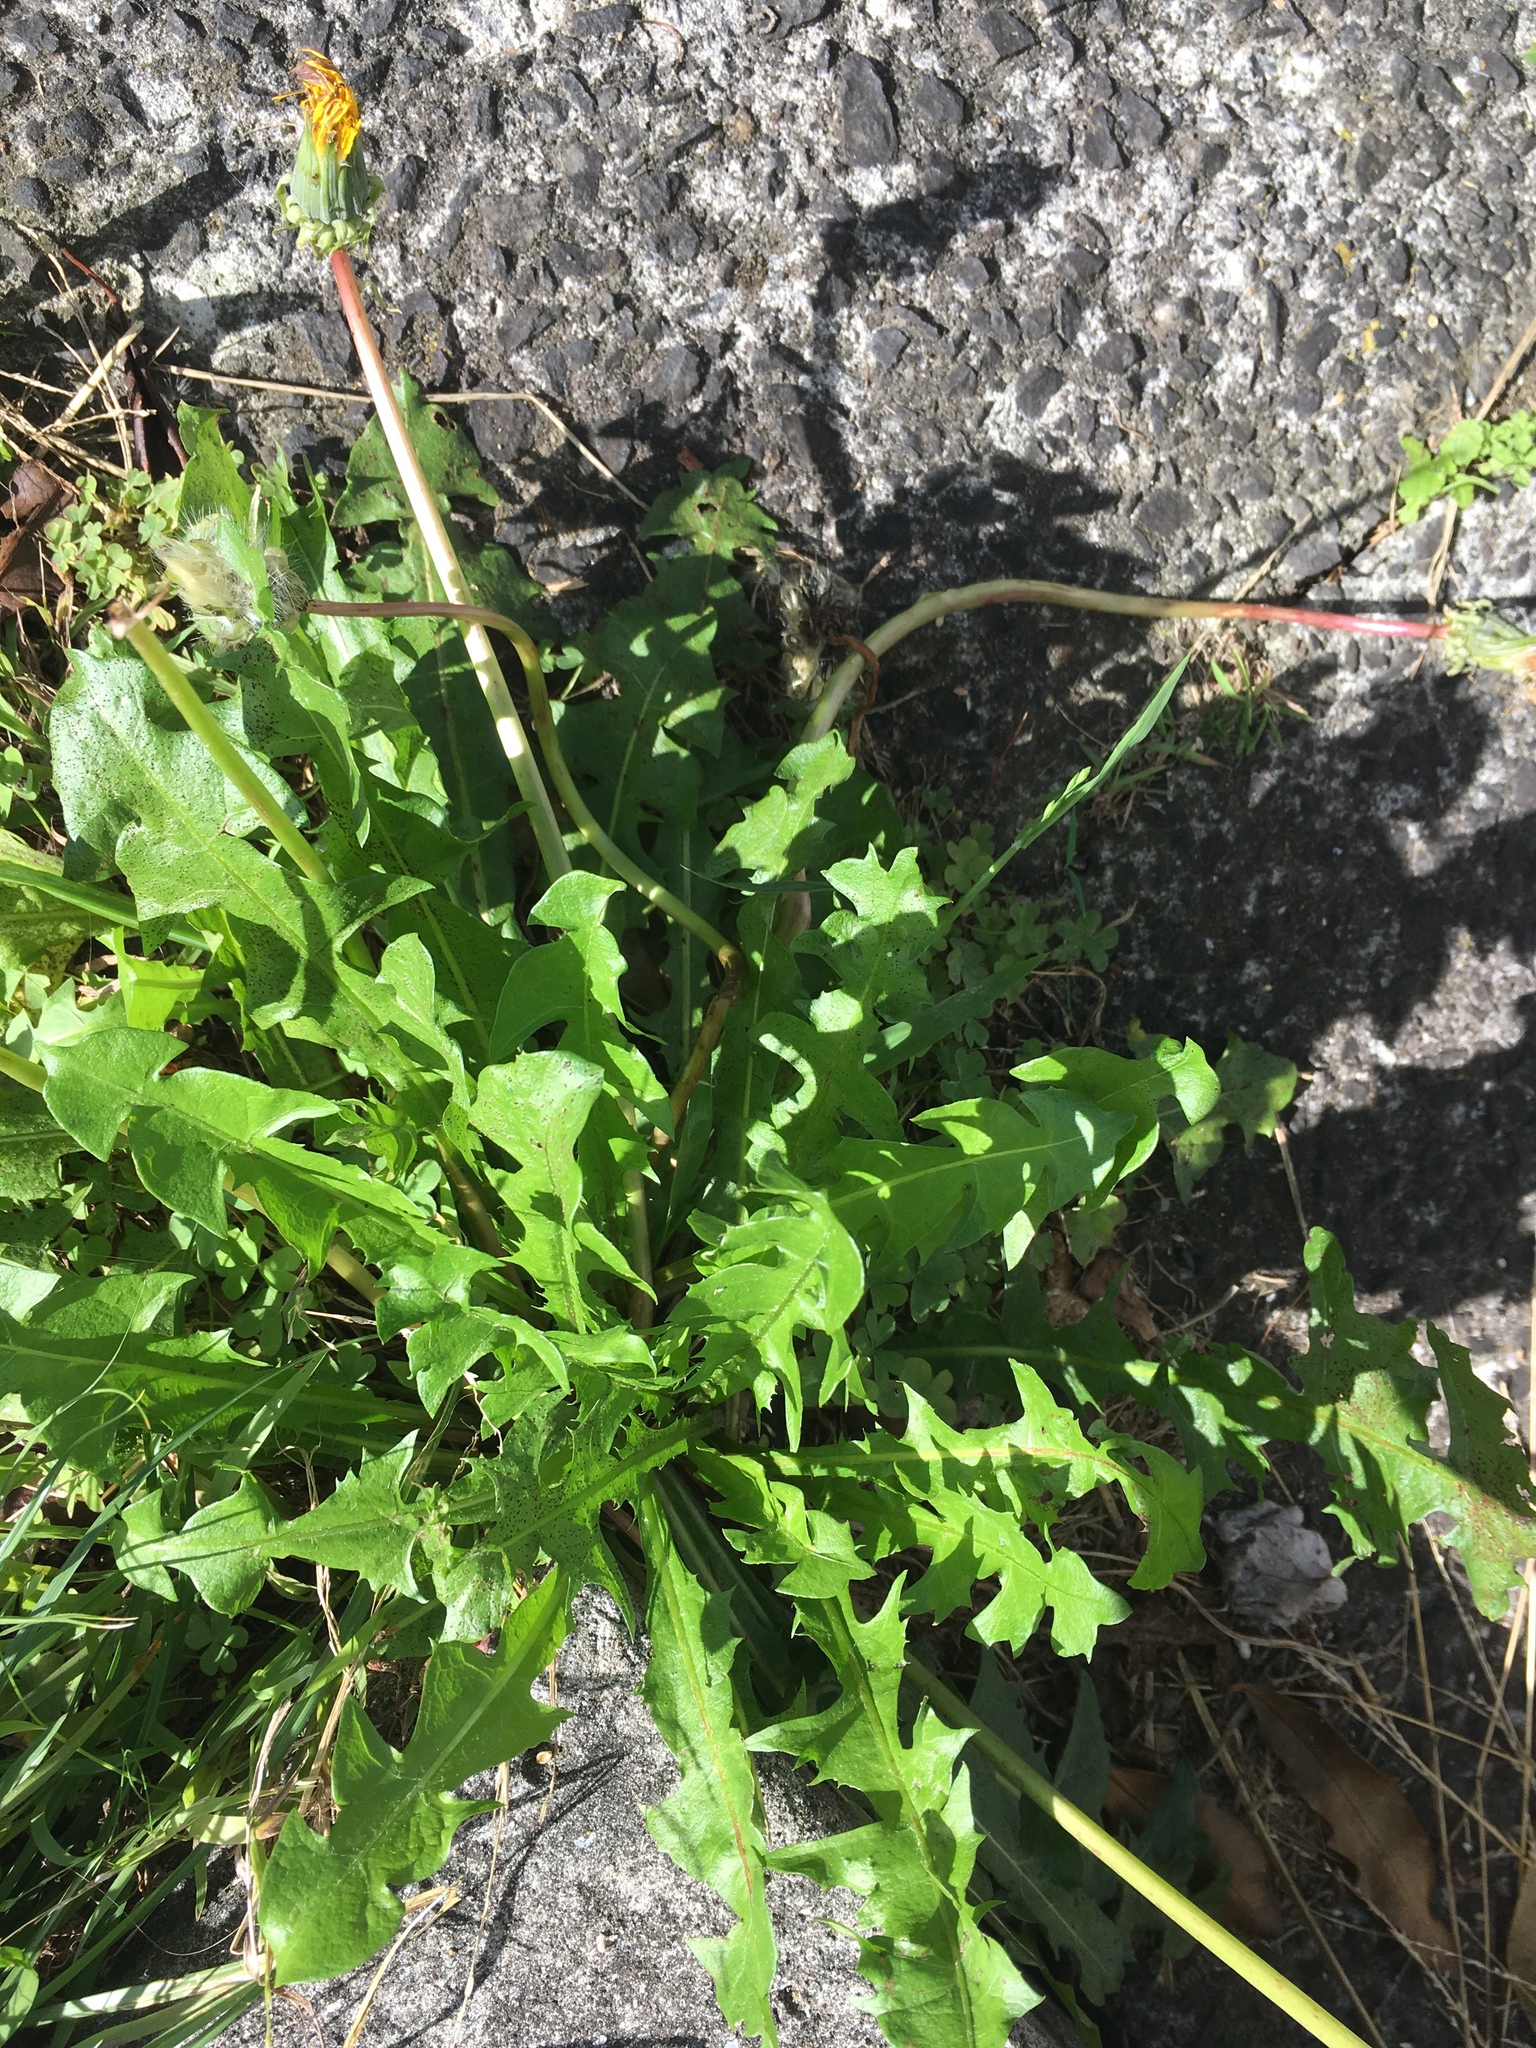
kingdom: Plantae
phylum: Tracheophyta
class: Magnoliopsida
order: Asterales
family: Asteraceae
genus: Taraxacum
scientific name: Taraxacum officinale
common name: Common dandelion
